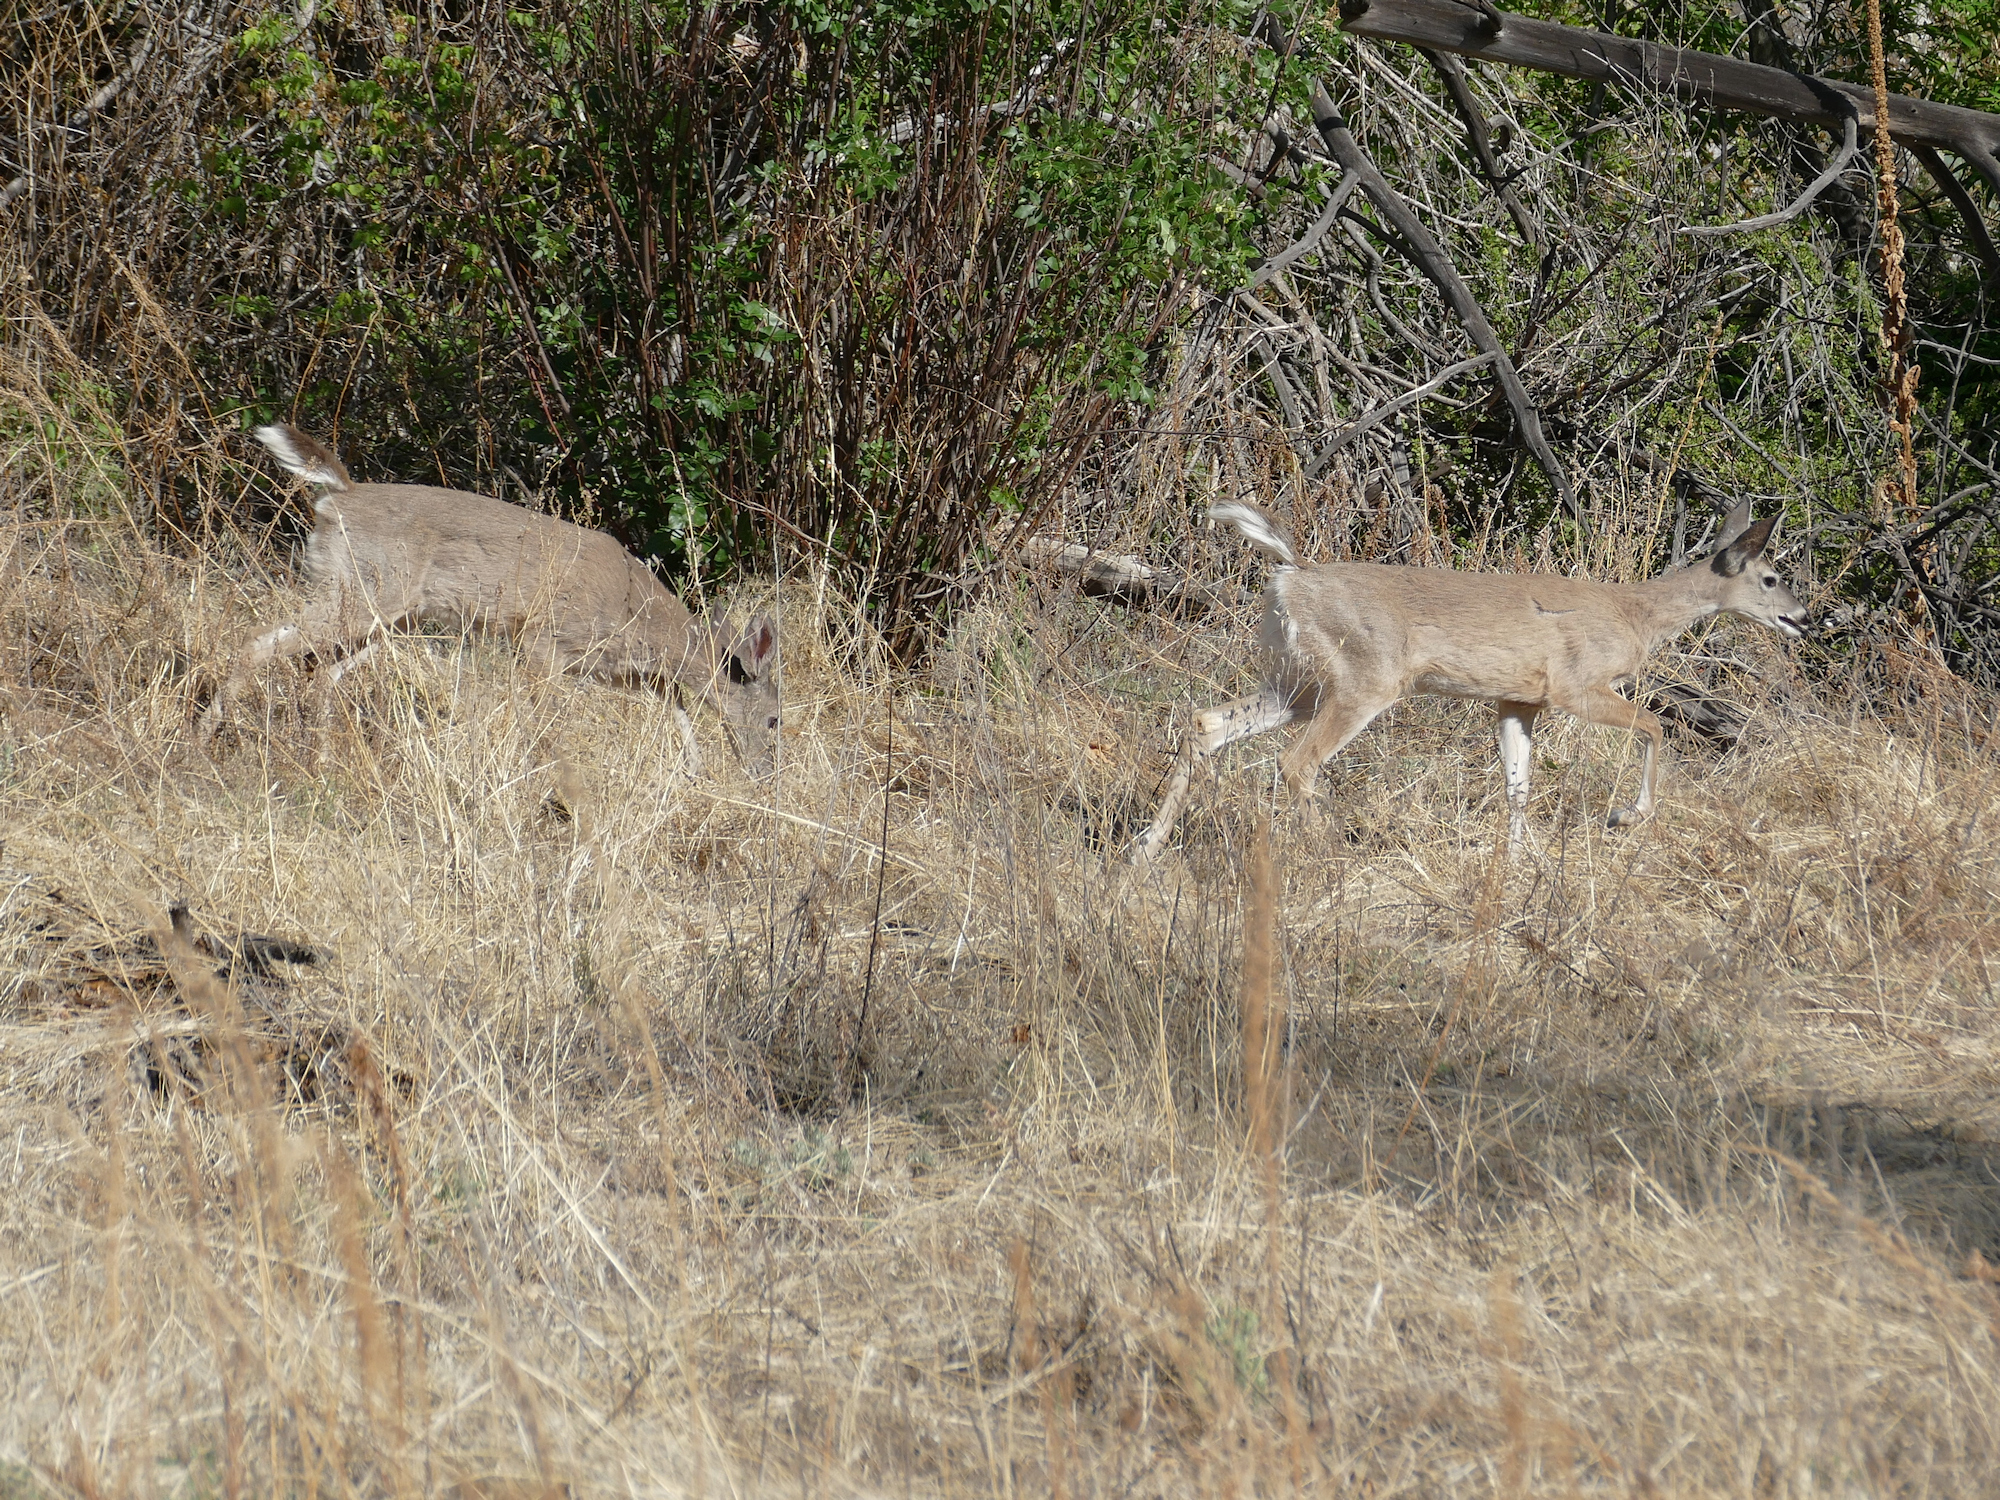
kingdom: Animalia
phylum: Chordata
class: Mammalia
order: Artiodactyla
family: Cervidae
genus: Odocoileus
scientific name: Odocoileus virginianus
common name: White-tailed deer
